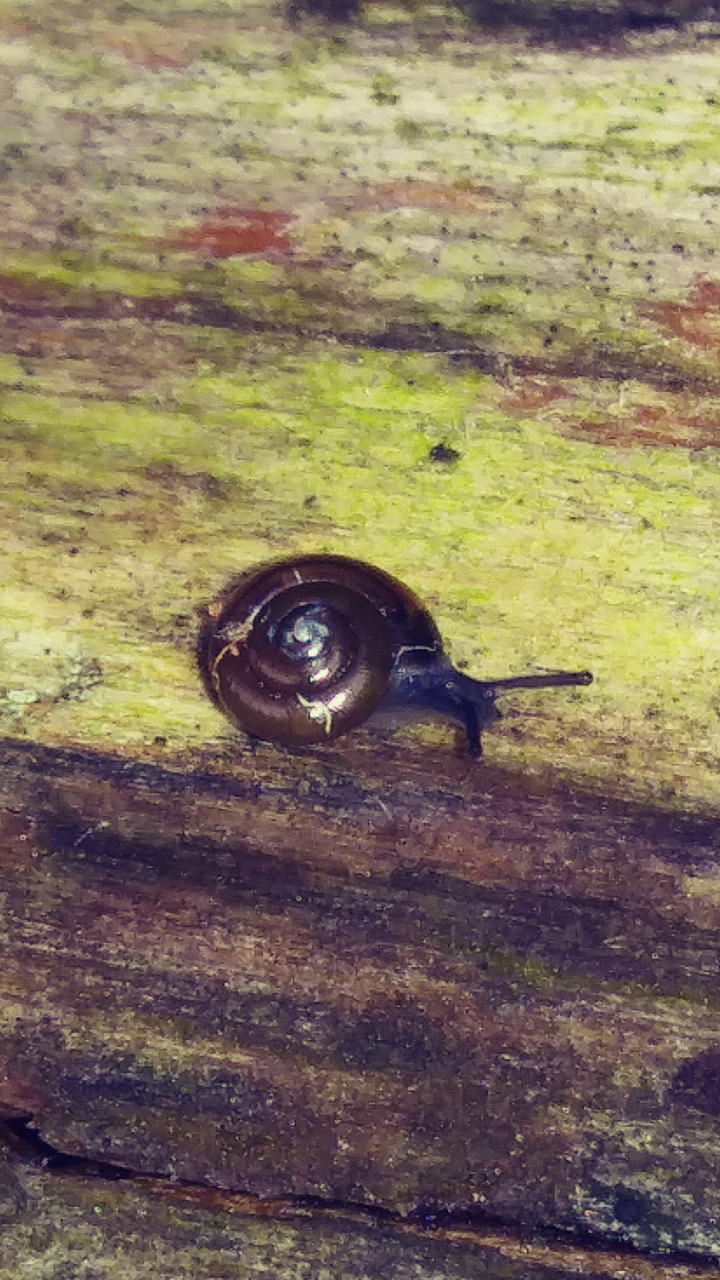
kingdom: Animalia
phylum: Mollusca
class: Gastropoda
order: Stylommatophora
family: Gastrodontidae
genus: Zonitoides
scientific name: Zonitoides arboreus
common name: Quick gloss
